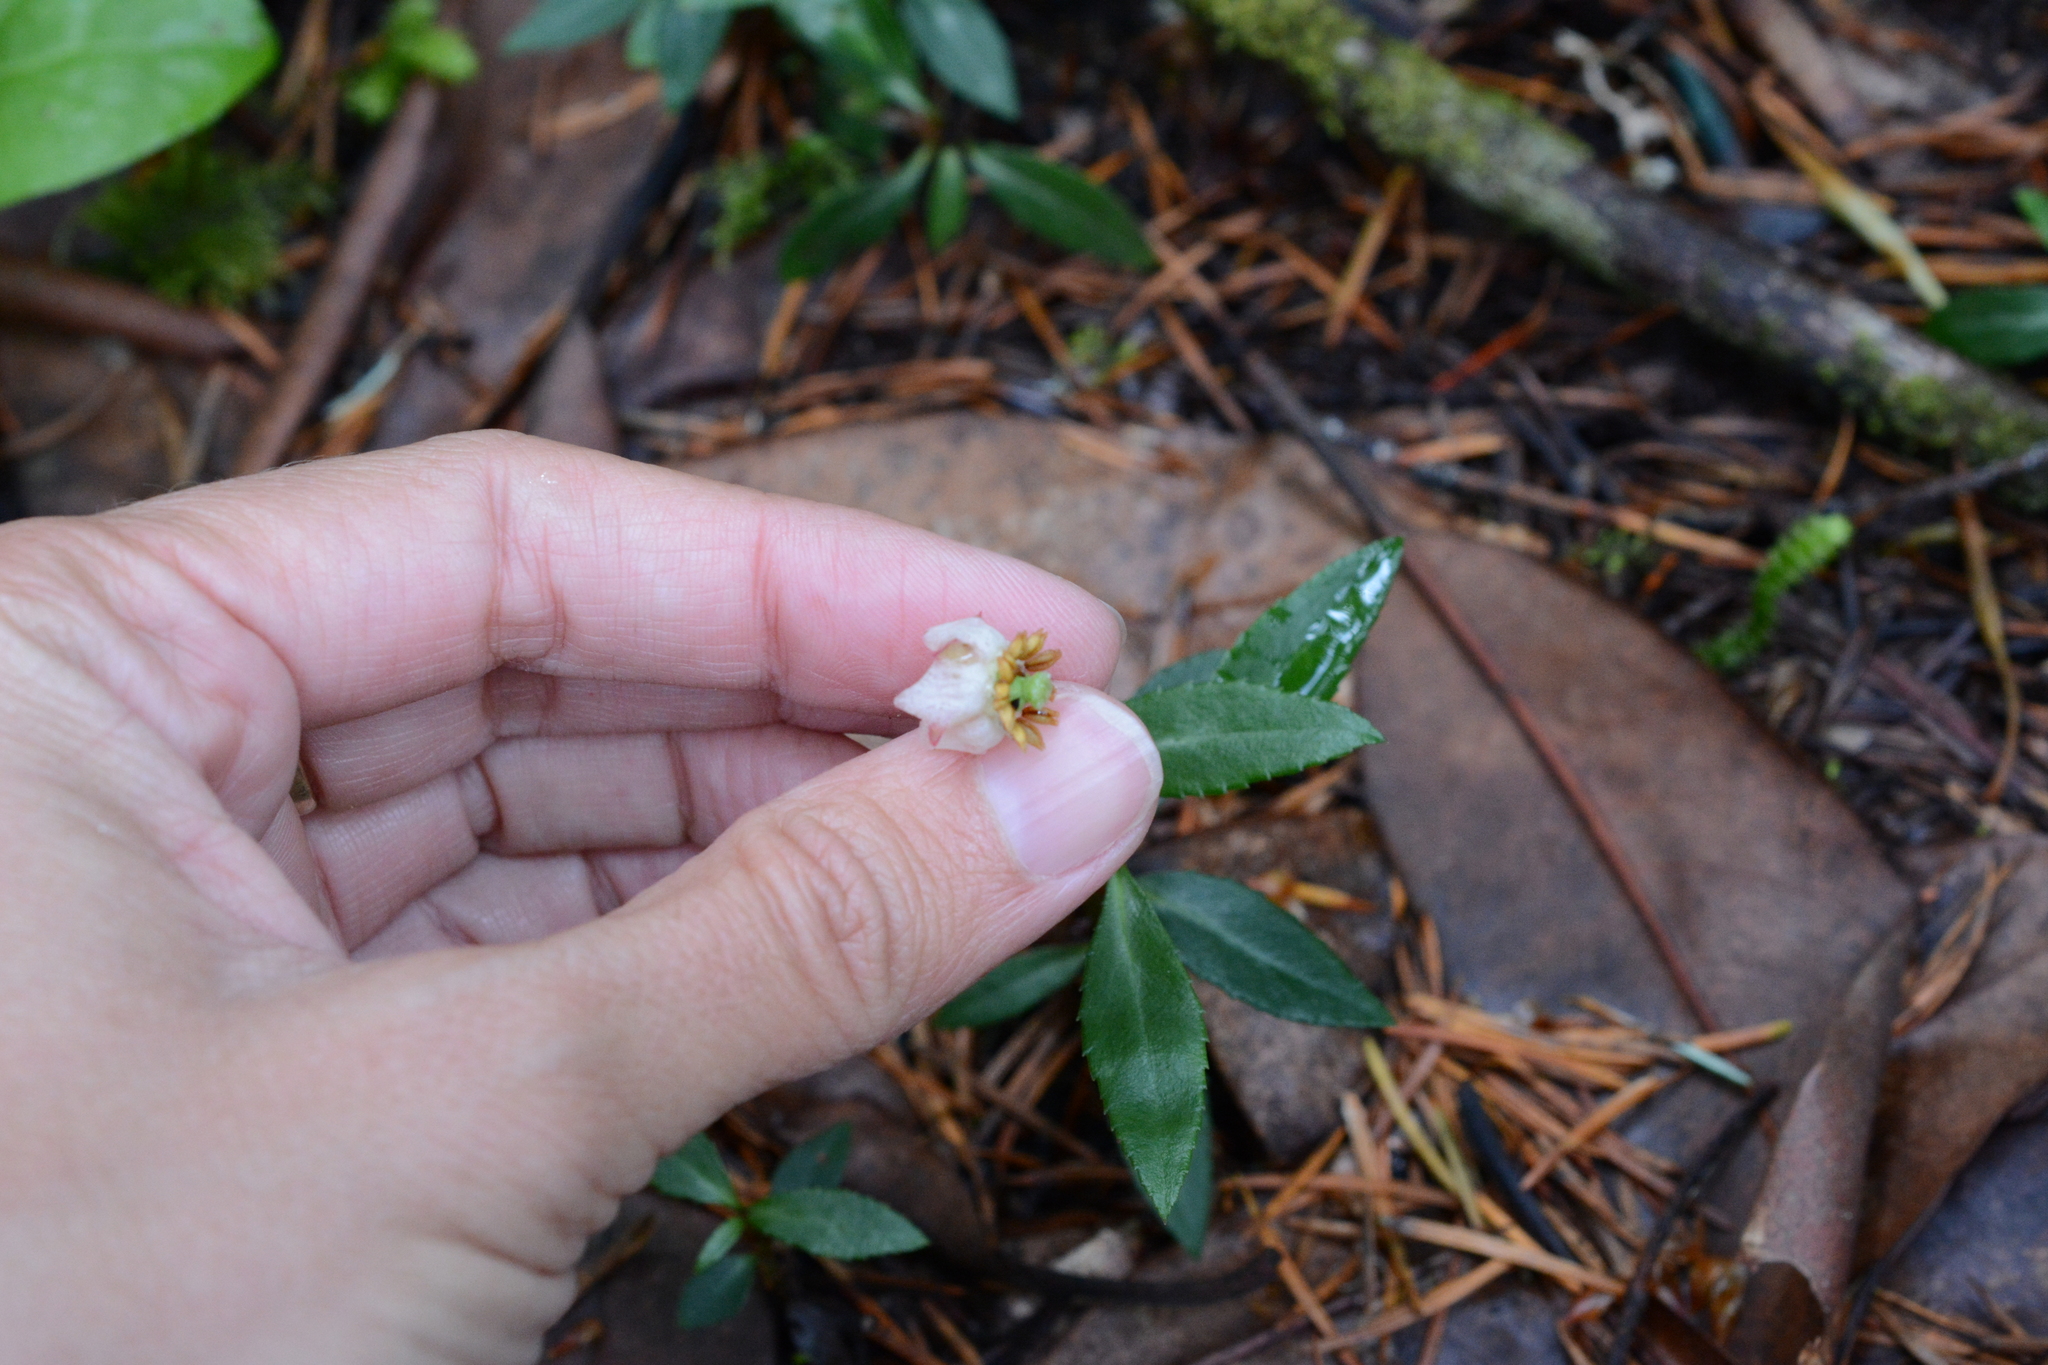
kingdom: Plantae
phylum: Tracheophyta
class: Magnoliopsida
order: Ericales
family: Ericaceae
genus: Chimaphila
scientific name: Chimaphila menziesii
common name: Menzies' pipsissewa
